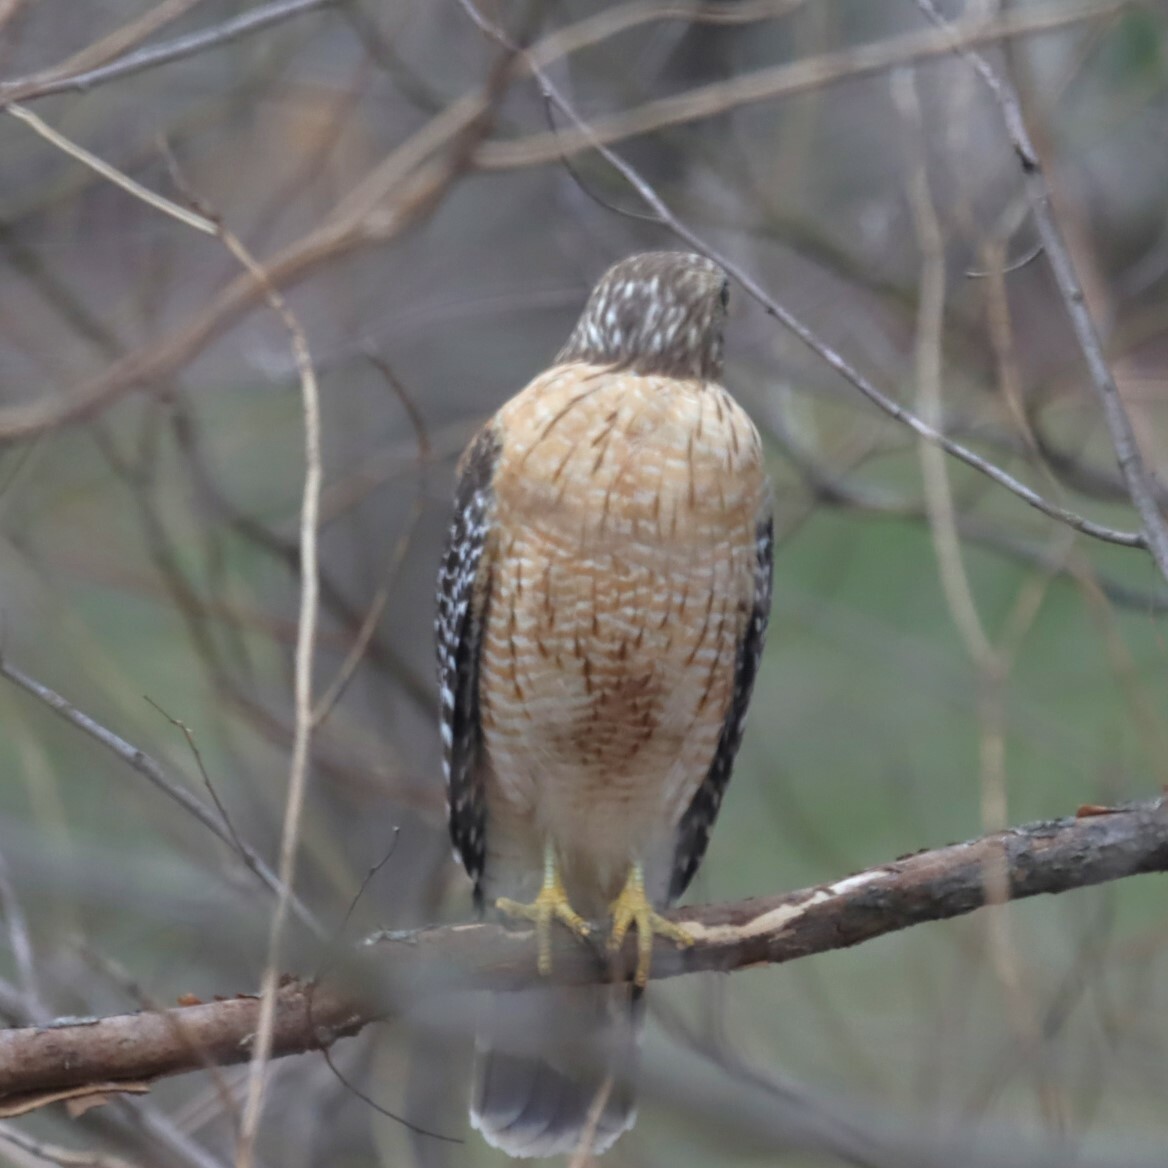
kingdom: Animalia
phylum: Chordata
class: Aves
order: Accipitriformes
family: Accipitridae
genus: Buteo
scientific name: Buteo lineatus
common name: Red-shouldered hawk
